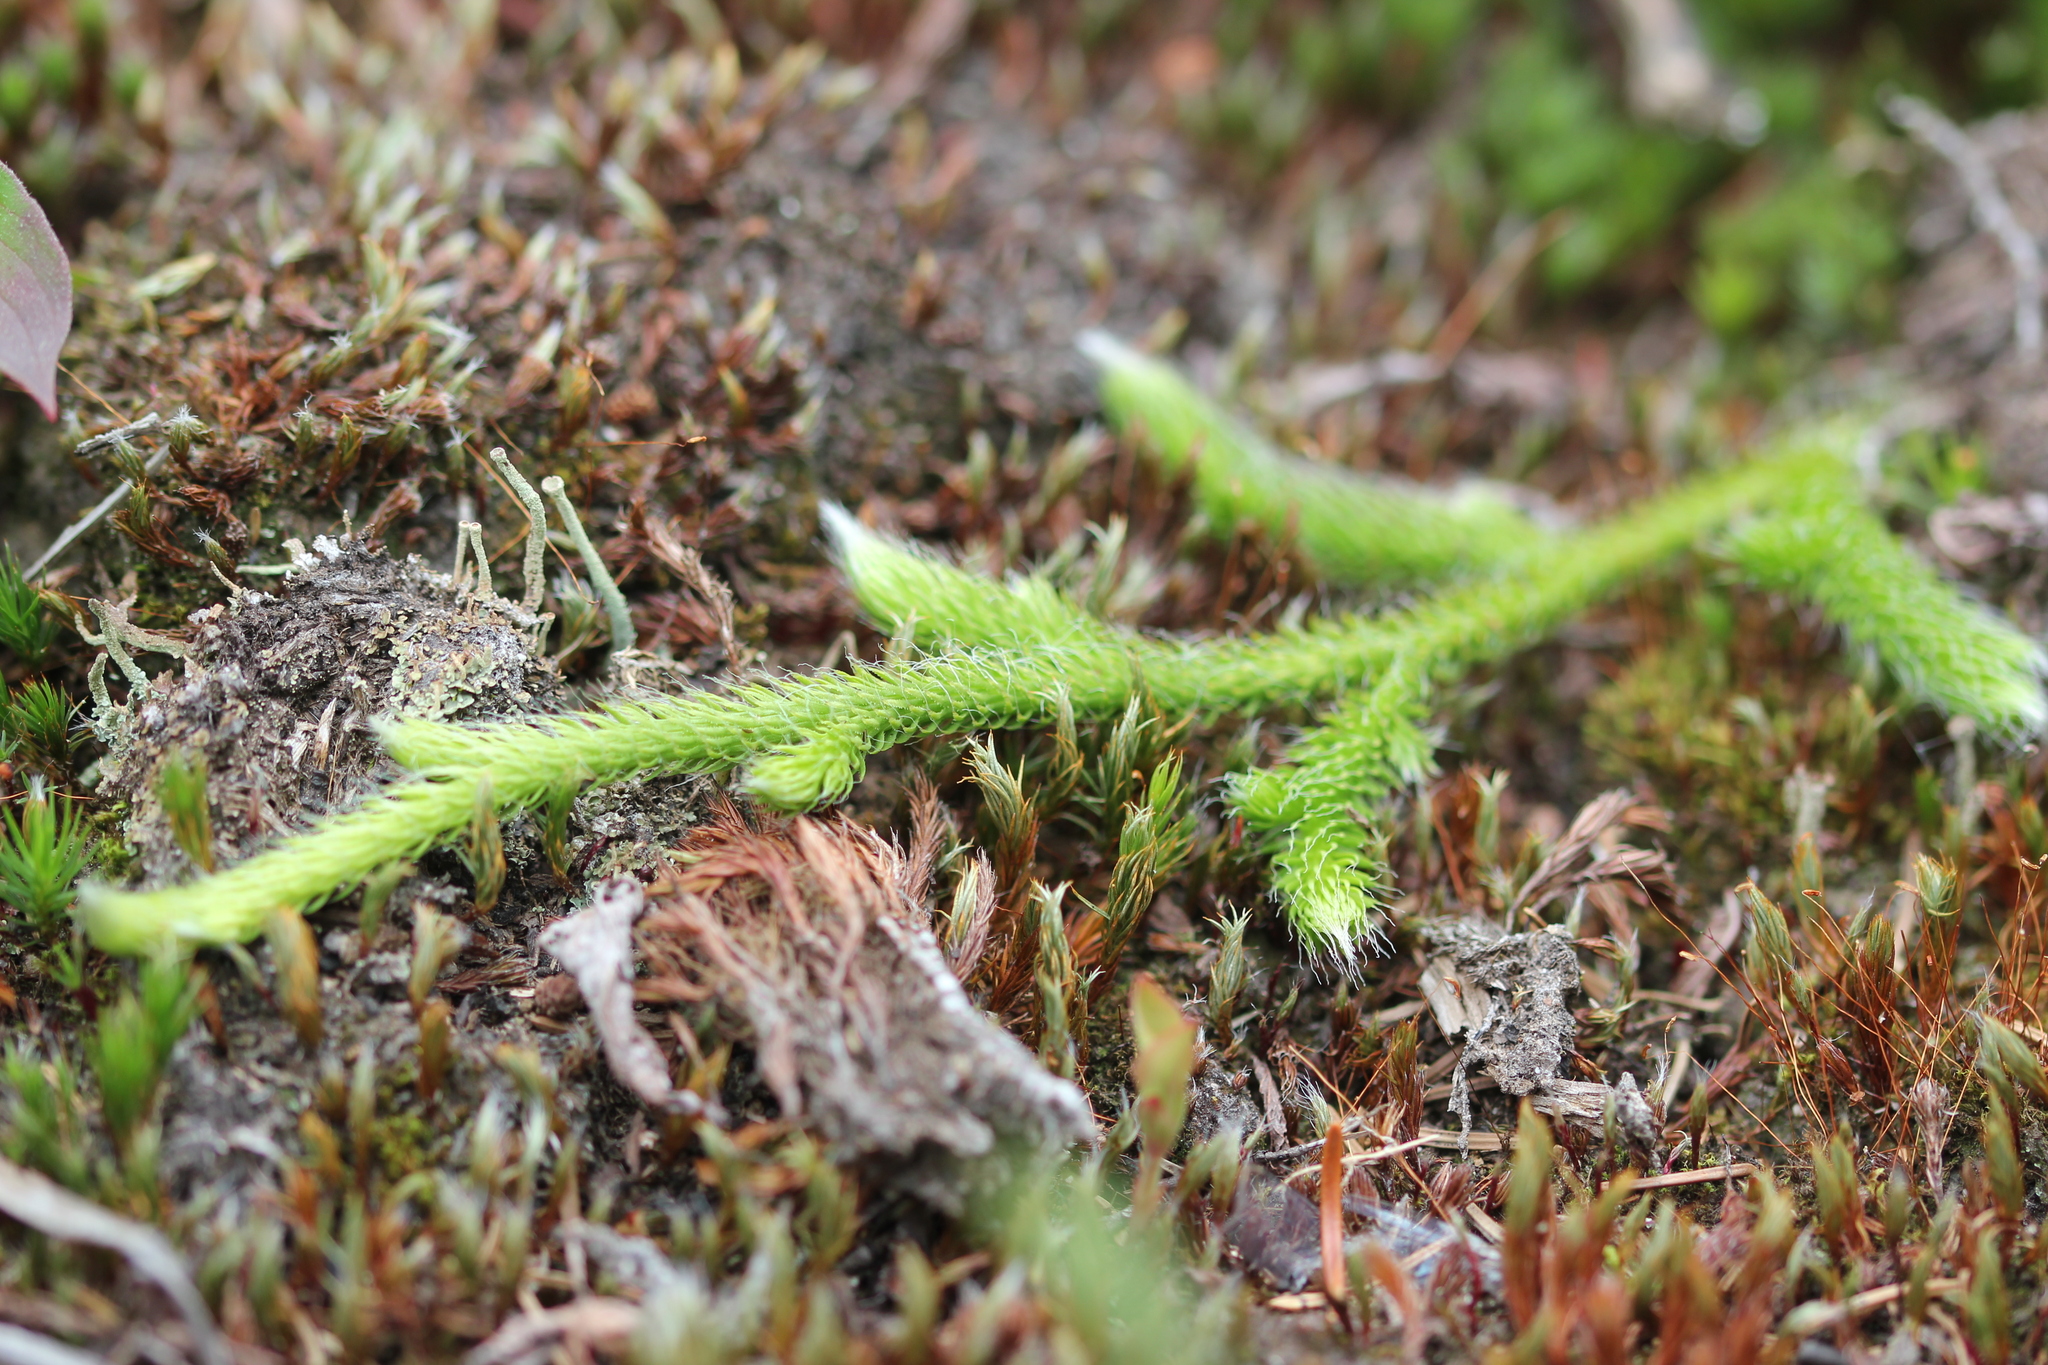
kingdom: Plantae
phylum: Tracheophyta
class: Lycopodiopsida
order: Lycopodiales
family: Lycopodiaceae
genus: Lycopodium
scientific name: Lycopodium clavatum
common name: Stag's-horn clubmoss
